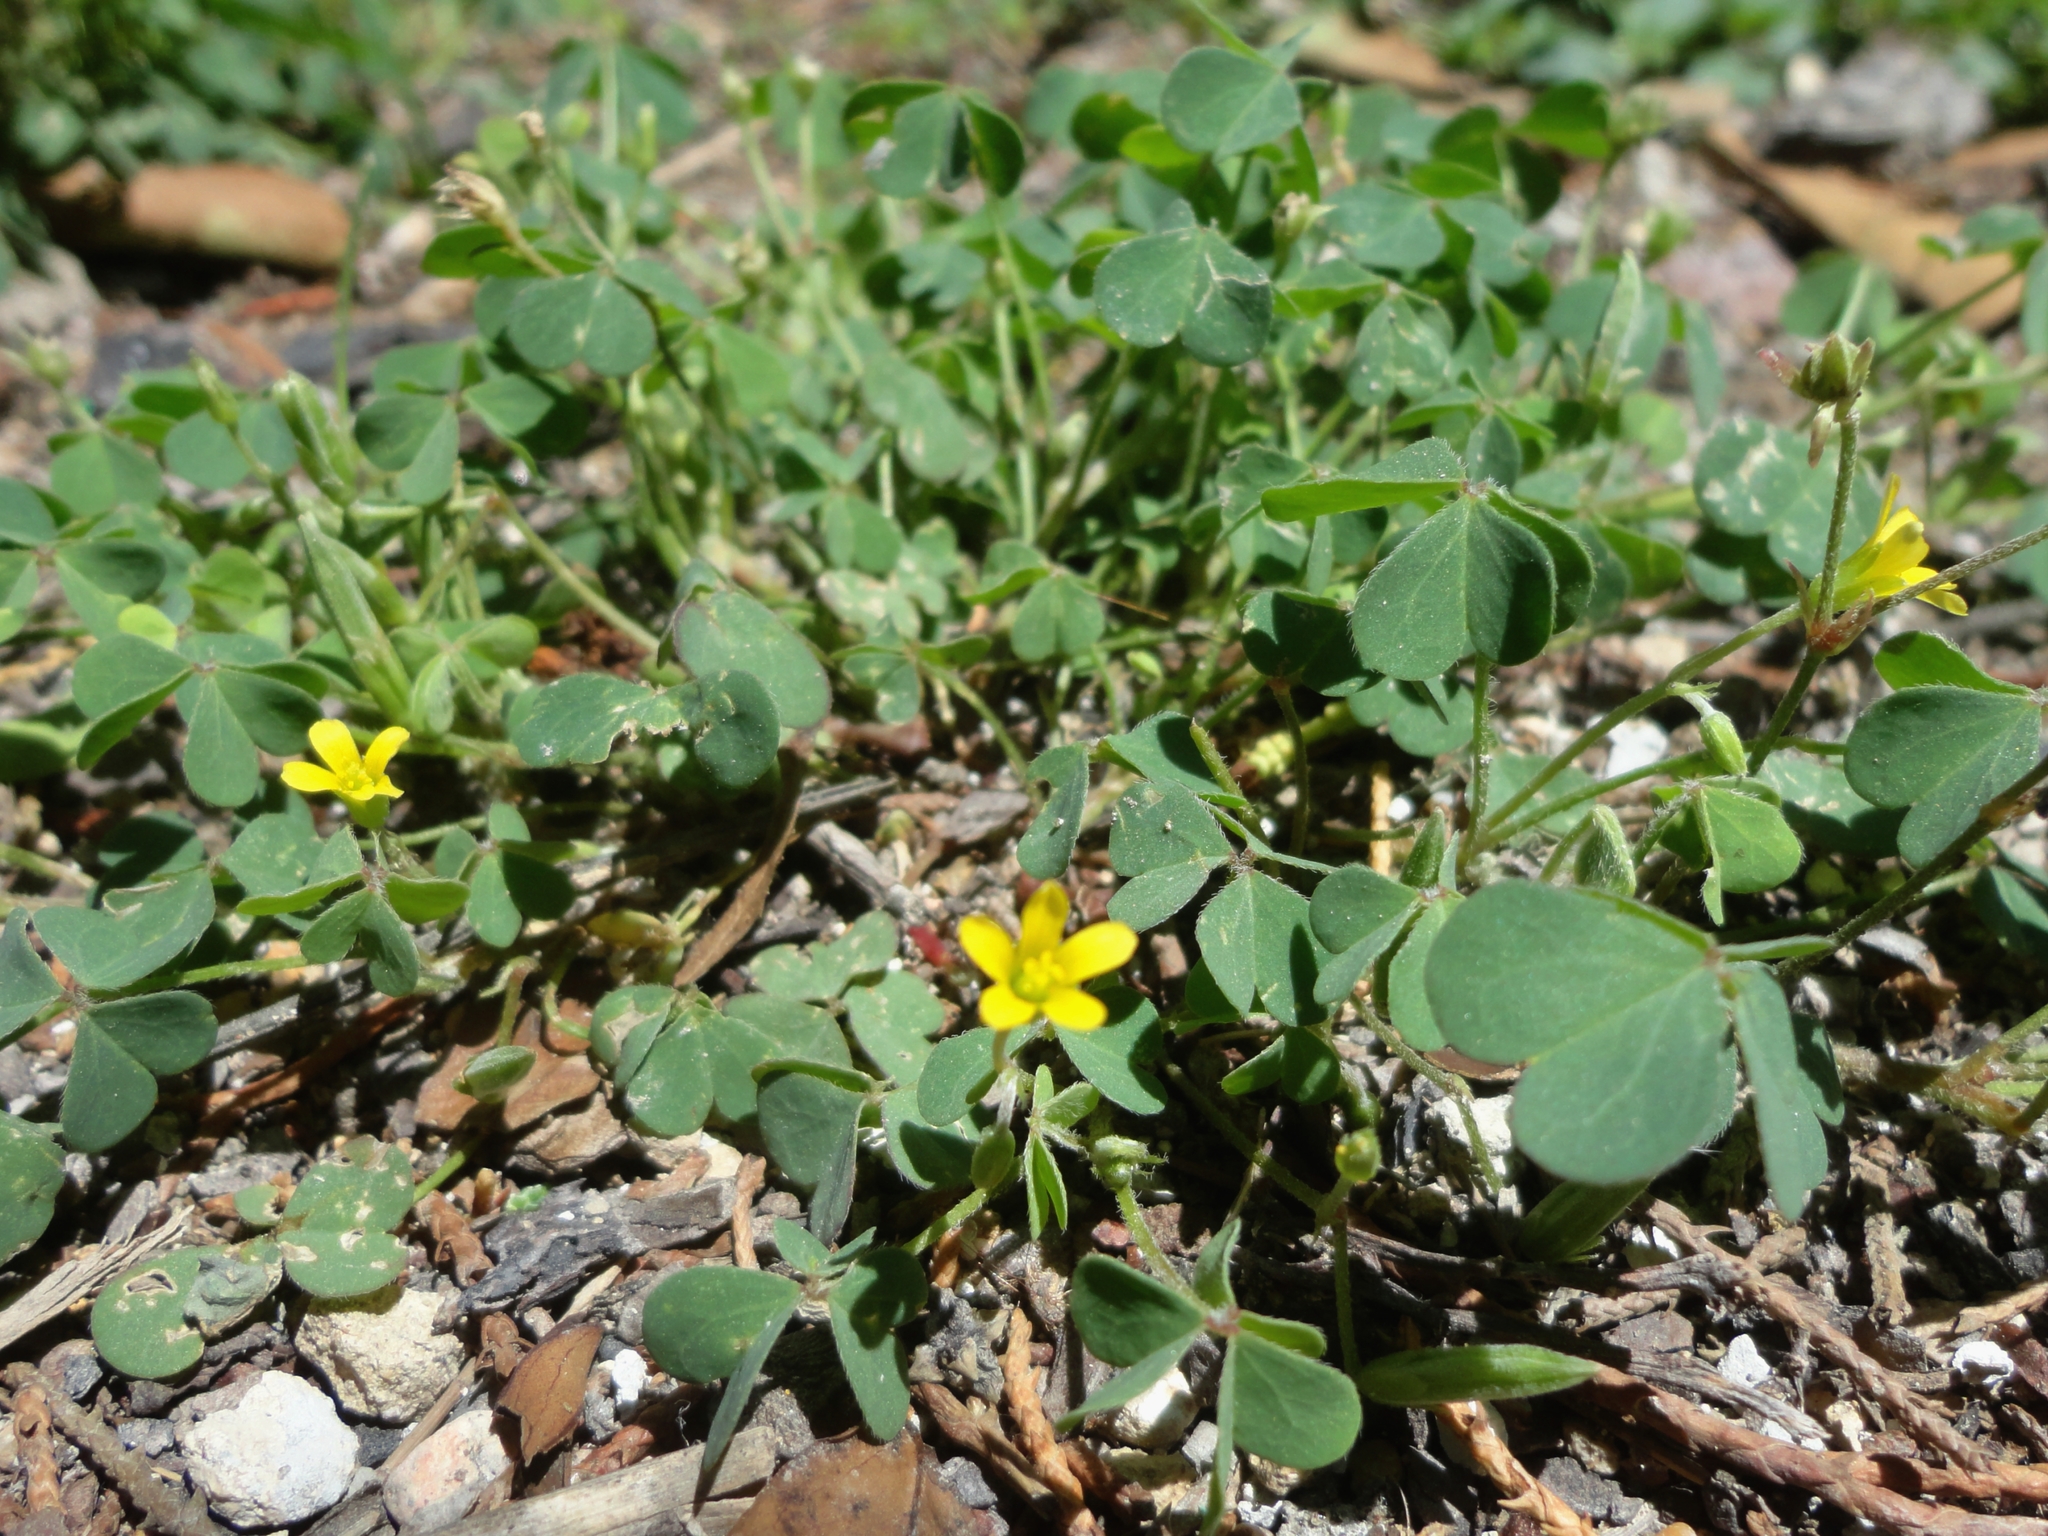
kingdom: Plantae
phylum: Tracheophyta
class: Magnoliopsida
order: Oxalidales
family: Oxalidaceae
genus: Oxalis
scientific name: Oxalis corniculata
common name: Procumbent yellow-sorrel
